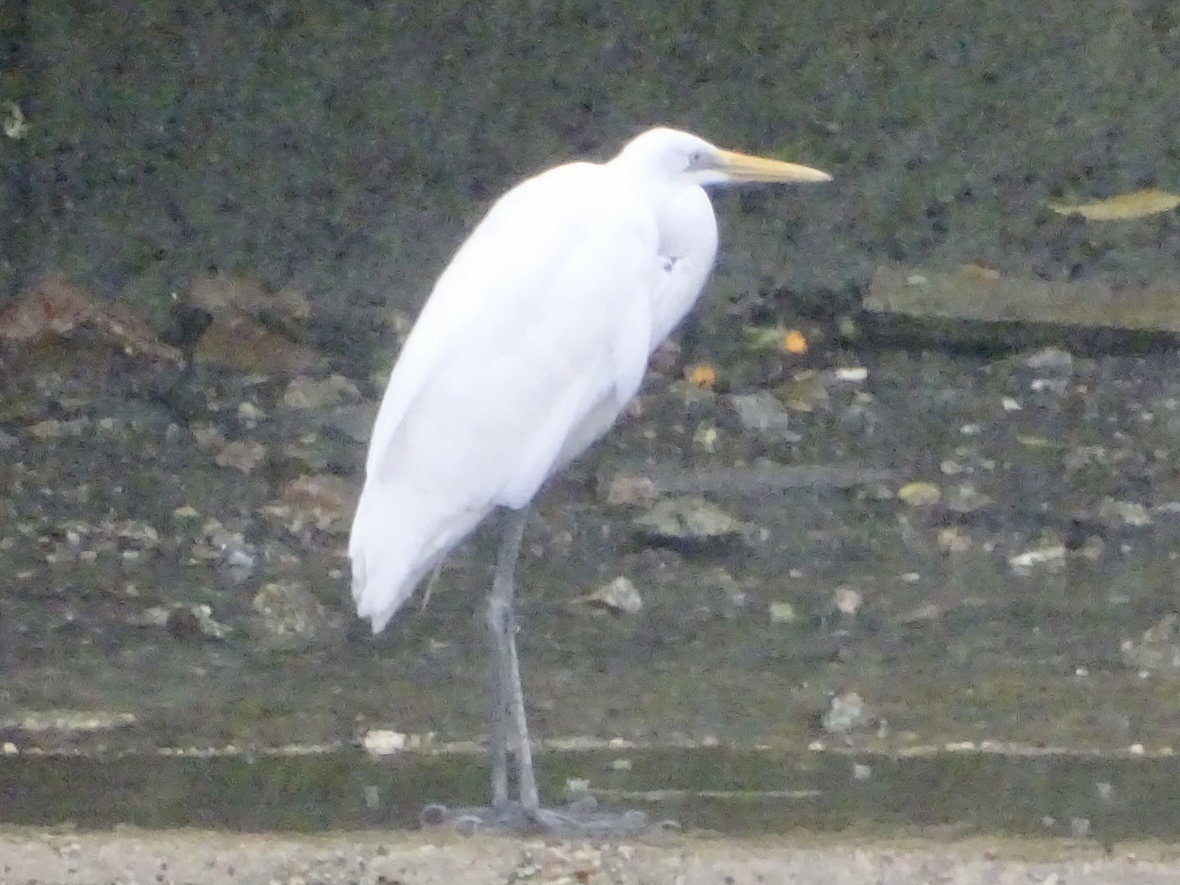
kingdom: Animalia
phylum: Chordata
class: Aves
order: Pelecaniformes
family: Ardeidae
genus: Ardea
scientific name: Ardea alba
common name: Great egret
